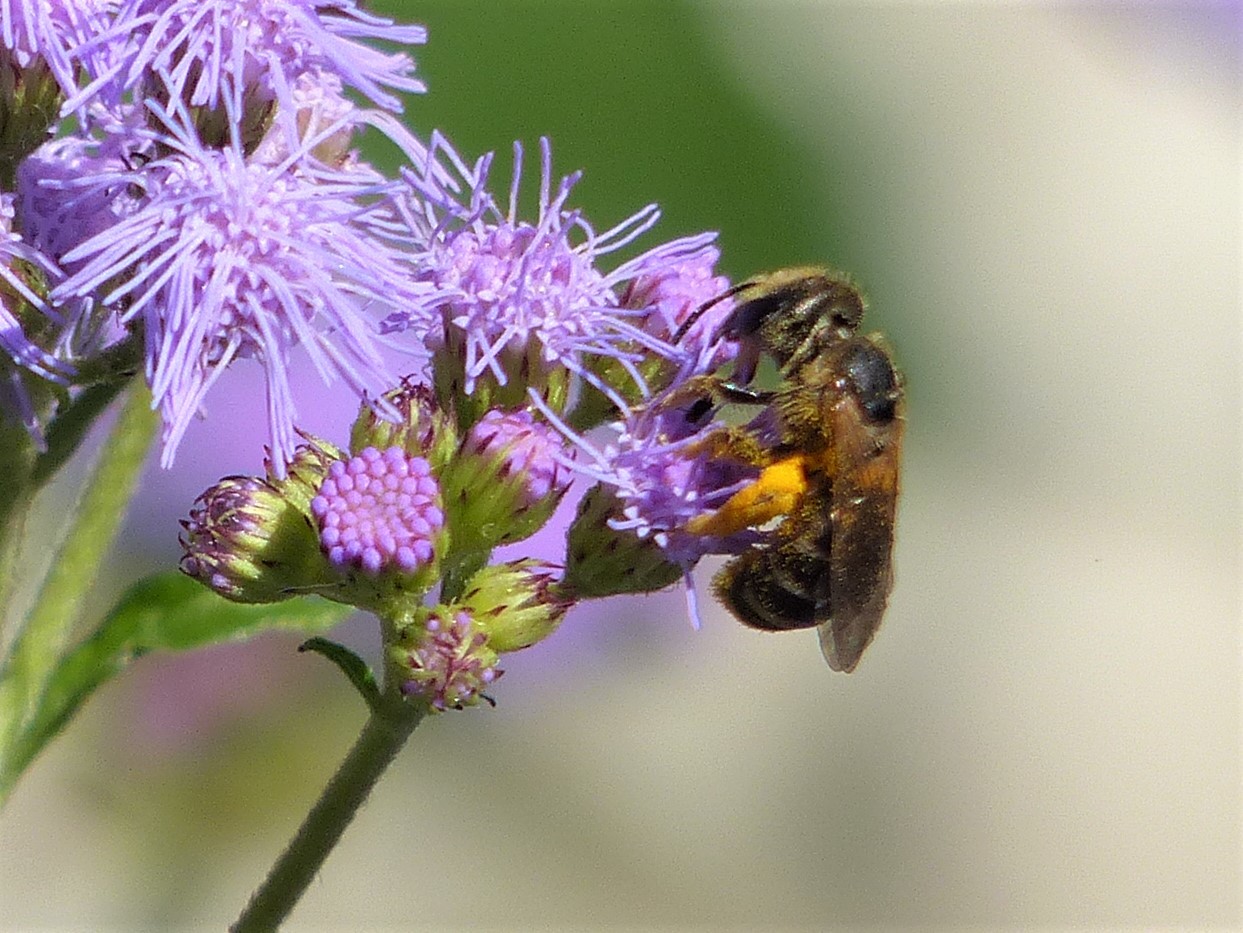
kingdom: Animalia
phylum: Arthropoda
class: Insecta
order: Hymenoptera
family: Halictidae
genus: Halictus
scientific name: Halictus ligatus
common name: Ligated furrow bee
